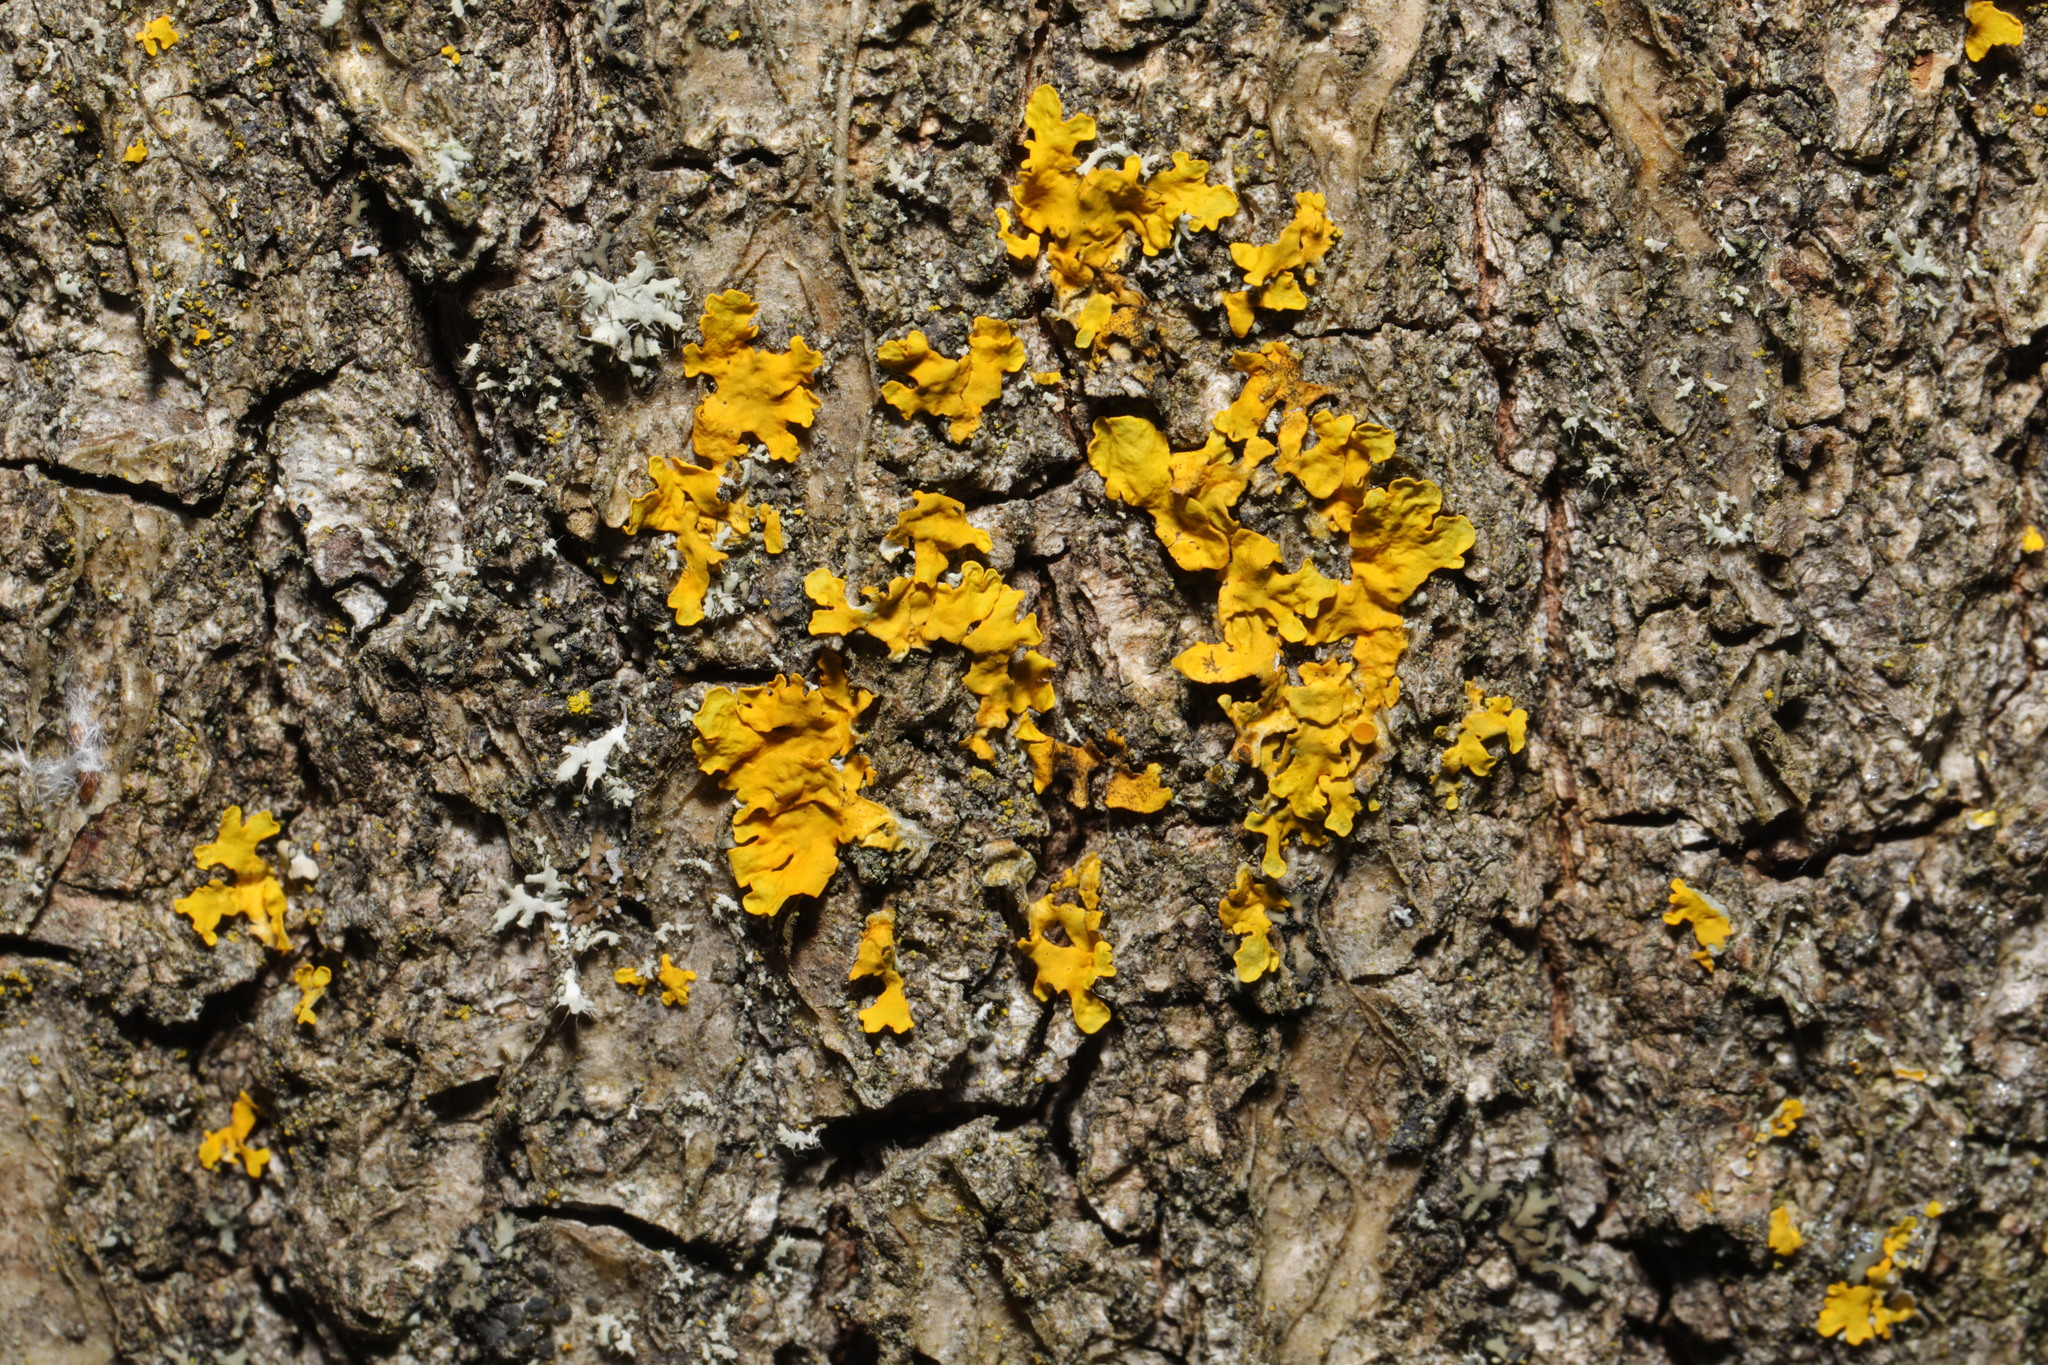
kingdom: Fungi
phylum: Ascomycota
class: Lecanoromycetes
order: Teloschistales
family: Teloschistaceae
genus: Xanthoria
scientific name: Xanthoria parietina
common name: Common orange lichen
